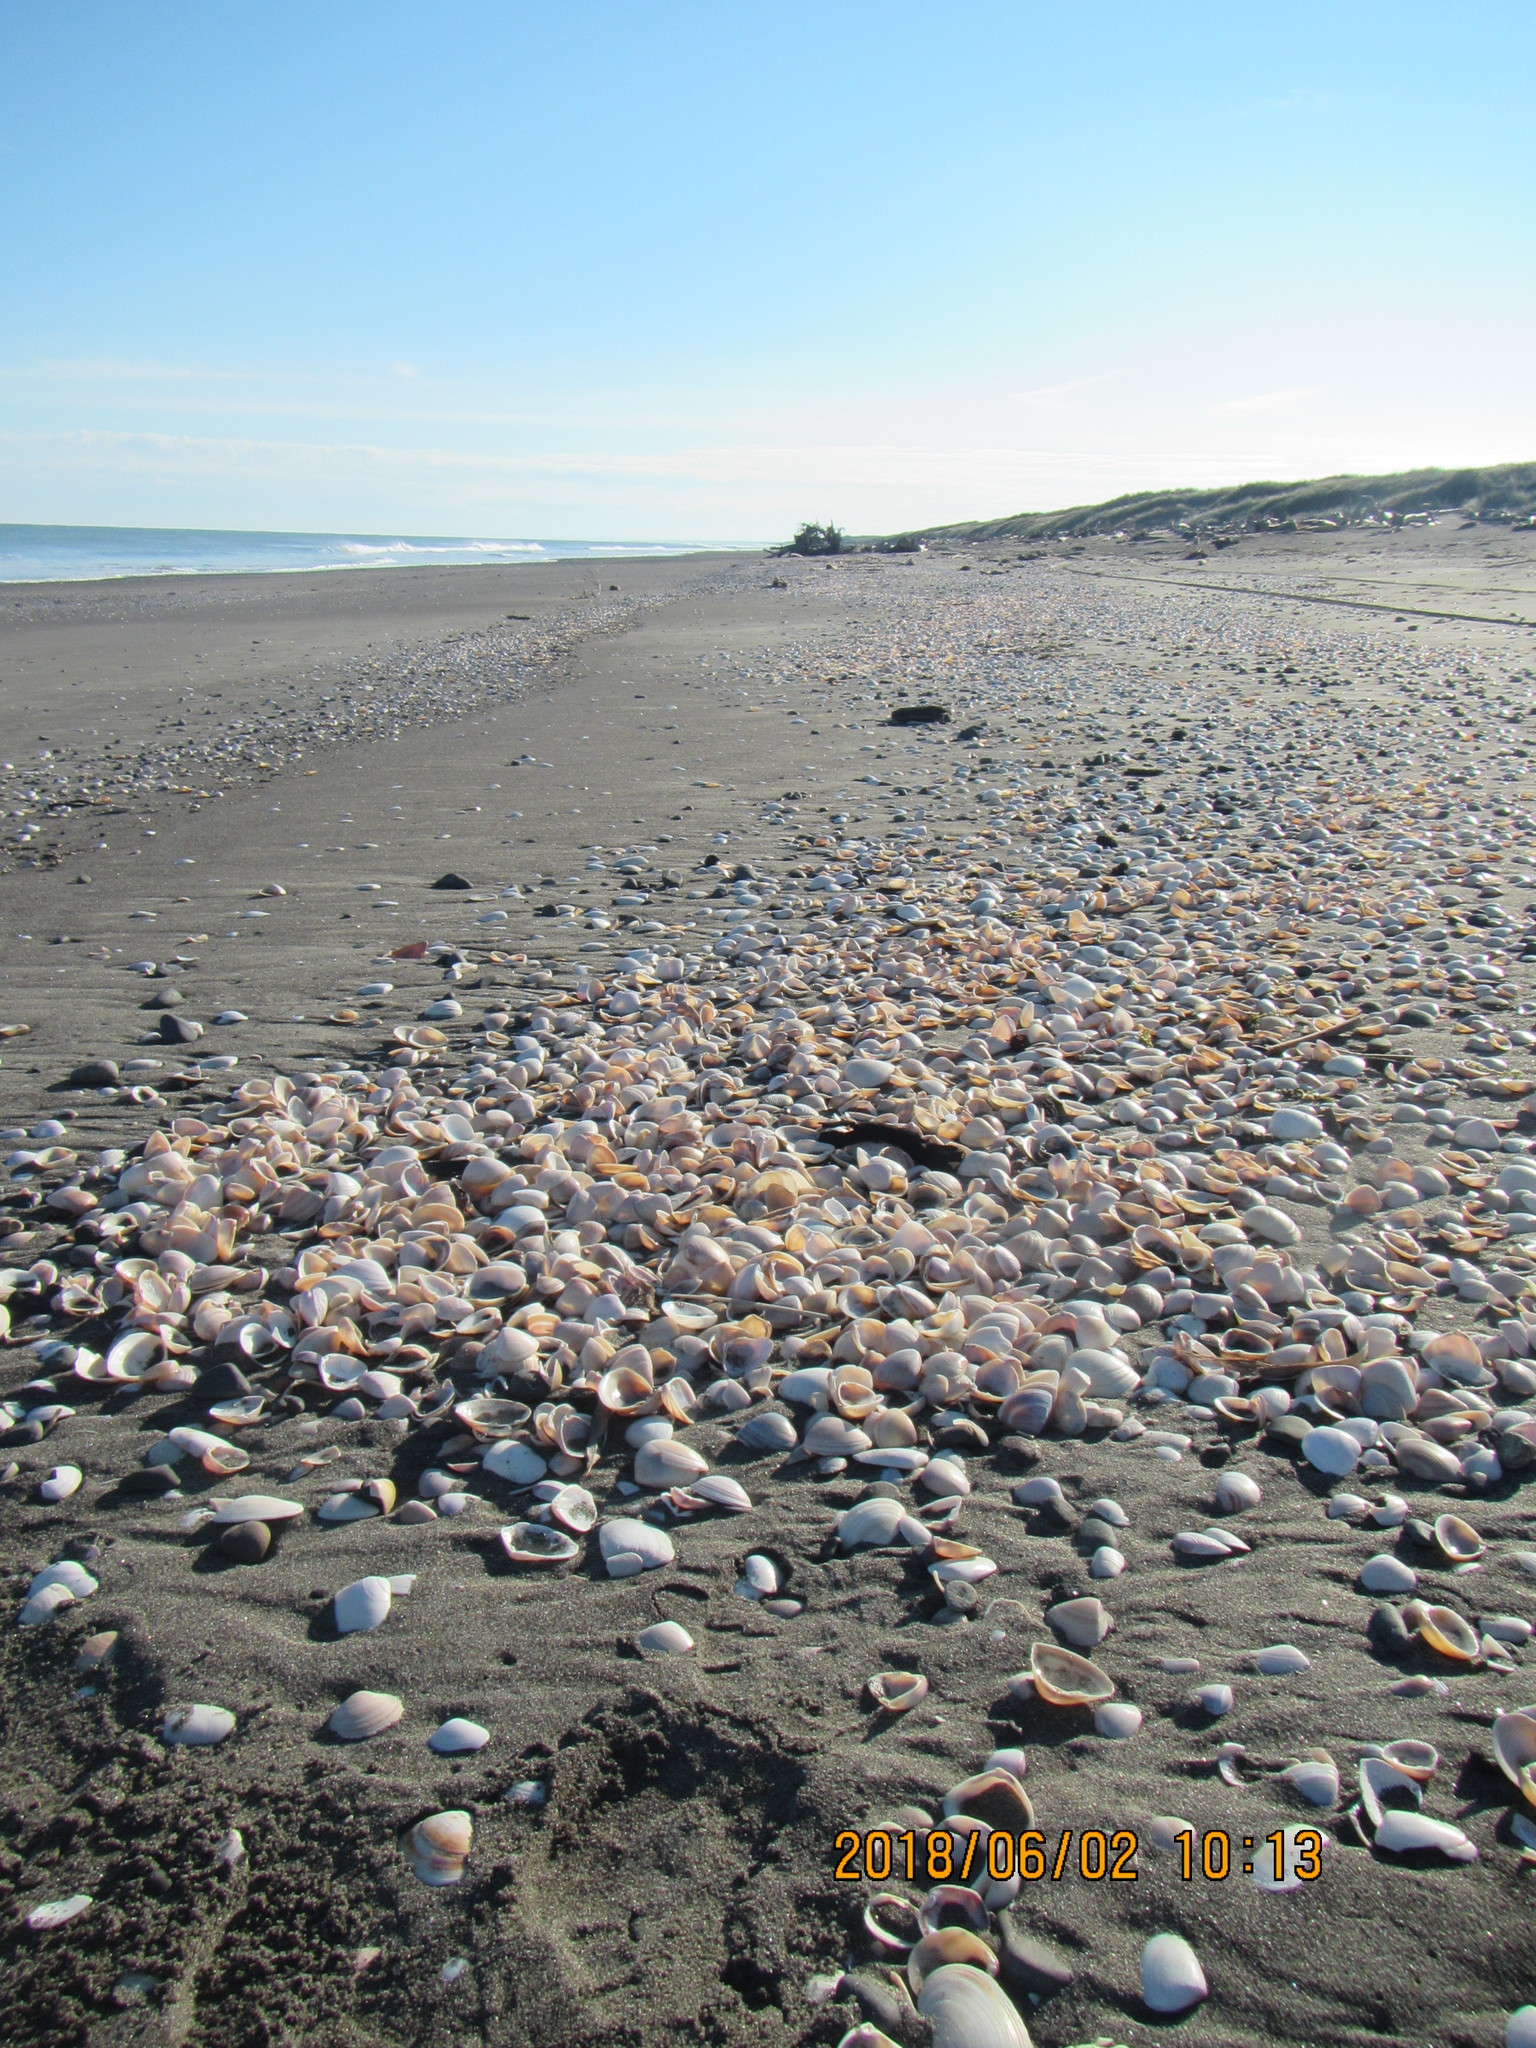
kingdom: Animalia
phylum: Mollusca
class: Bivalvia
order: Venerida
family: Mactridae
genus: Crassula
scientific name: Crassula aequilatera
